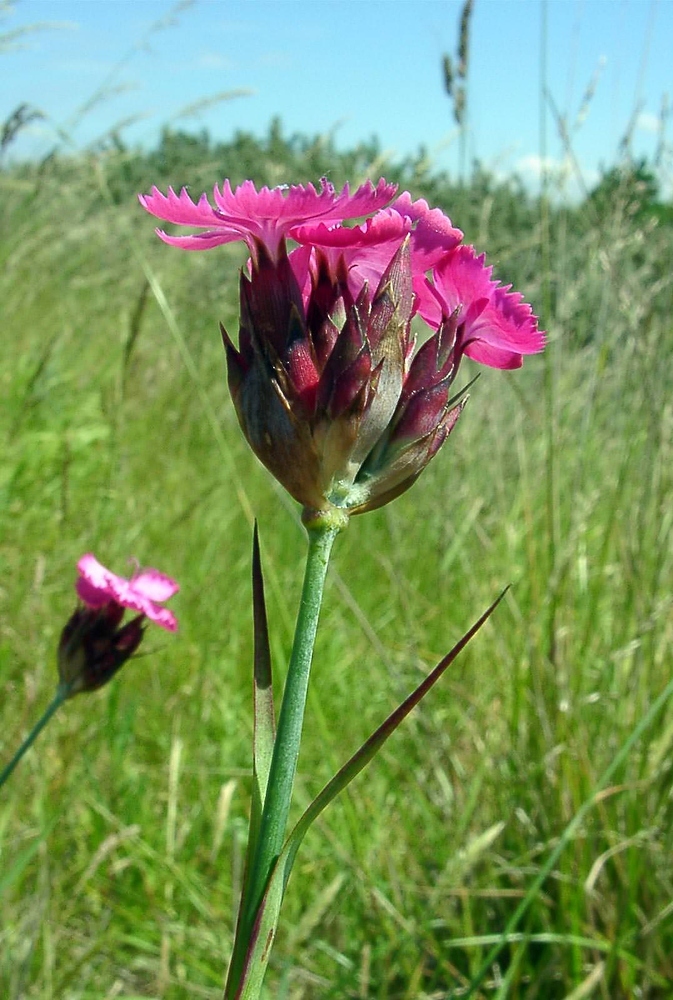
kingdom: Plantae
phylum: Tracheophyta
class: Magnoliopsida
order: Caryophyllales
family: Caryophyllaceae
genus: Dianthus
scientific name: Dianthus carthusianorum
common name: Carthusian pink
